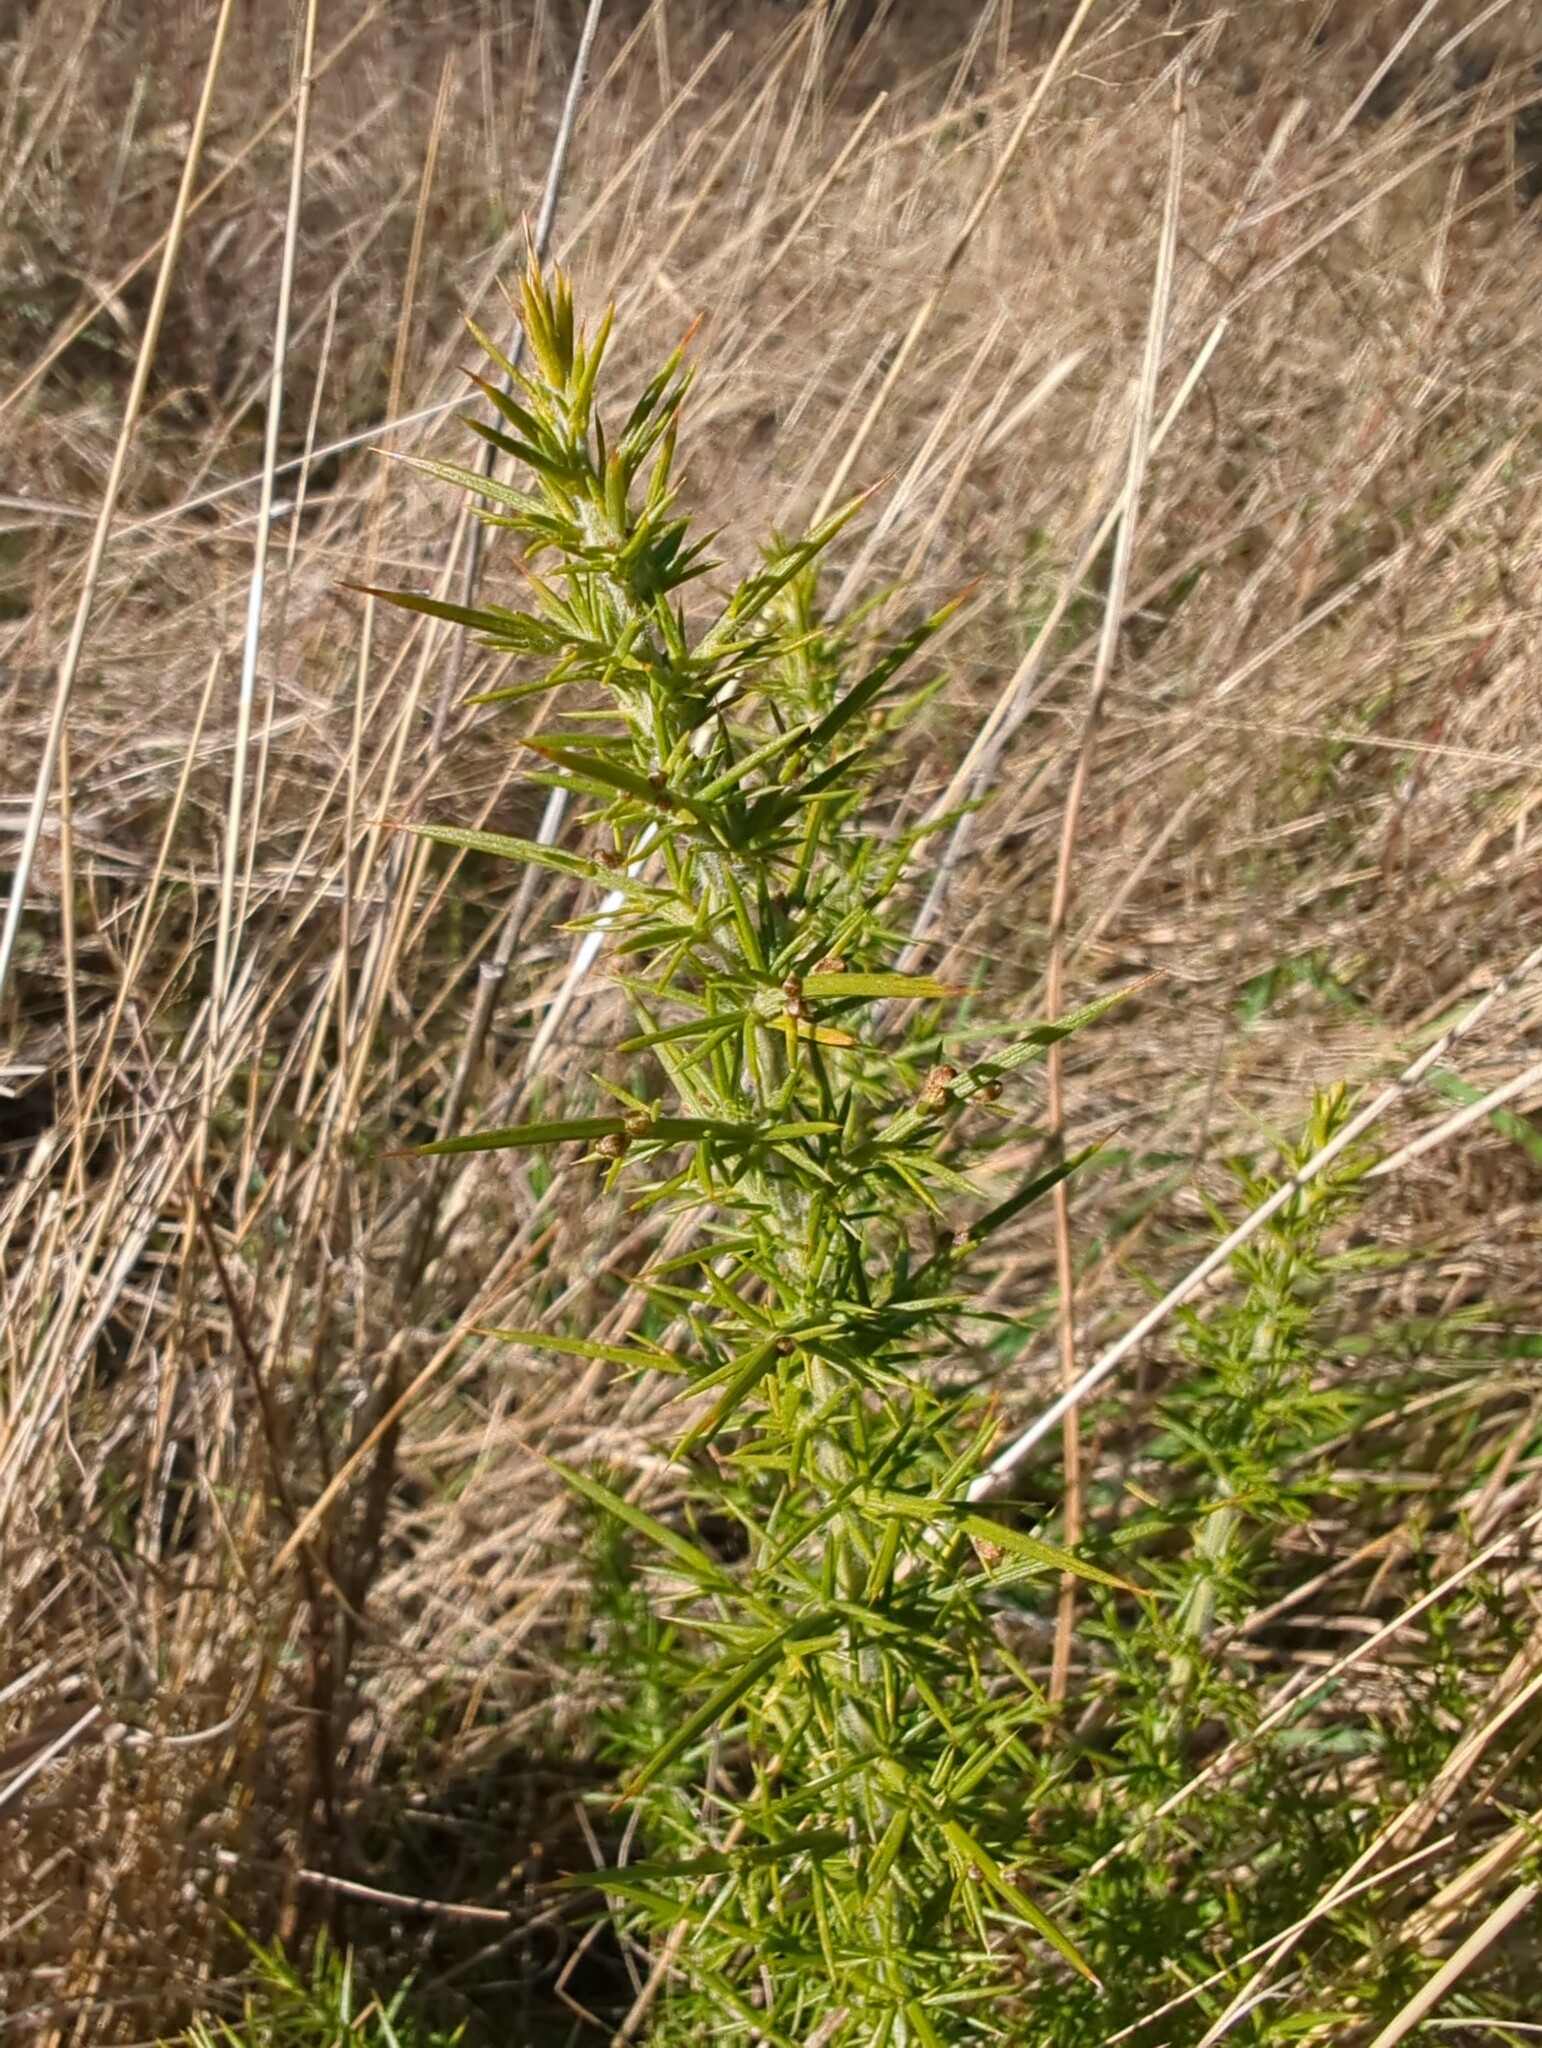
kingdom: Plantae
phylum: Tracheophyta
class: Magnoliopsida
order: Fabales
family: Fabaceae
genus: Ulex
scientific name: Ulex europaeus
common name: Common gorse
